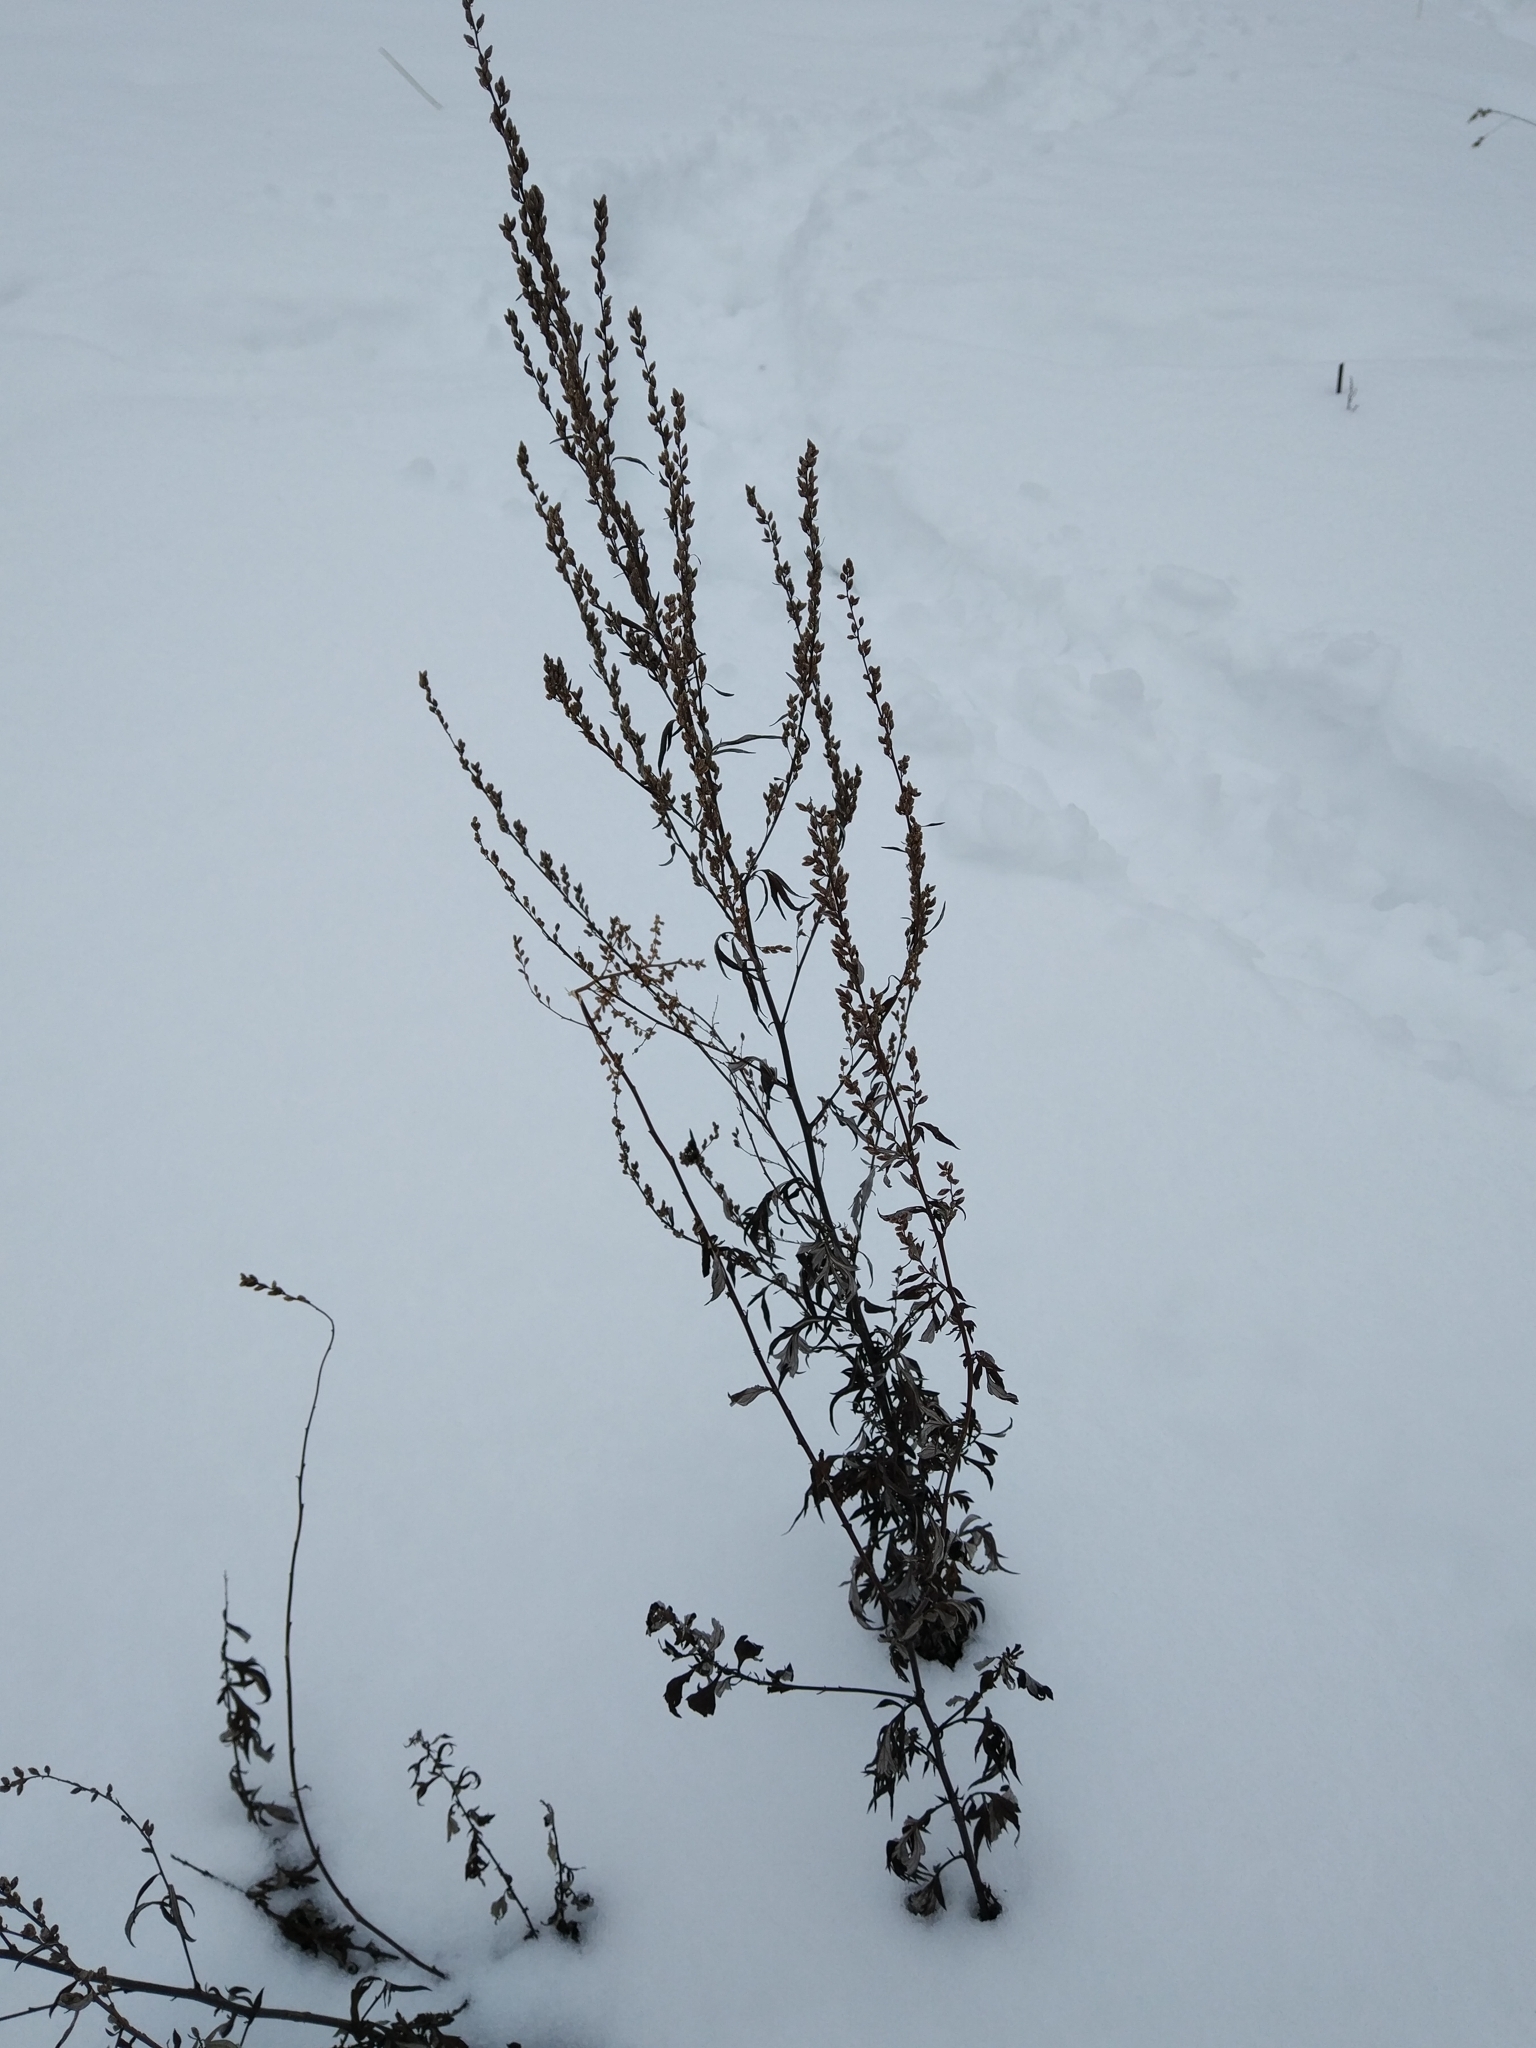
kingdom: Plantae
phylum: Tracheophyta
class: Magnoliopsida
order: Asterales
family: Asteraceae
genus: Artemisia
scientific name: Artemisia vulgaris
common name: Mugwort
